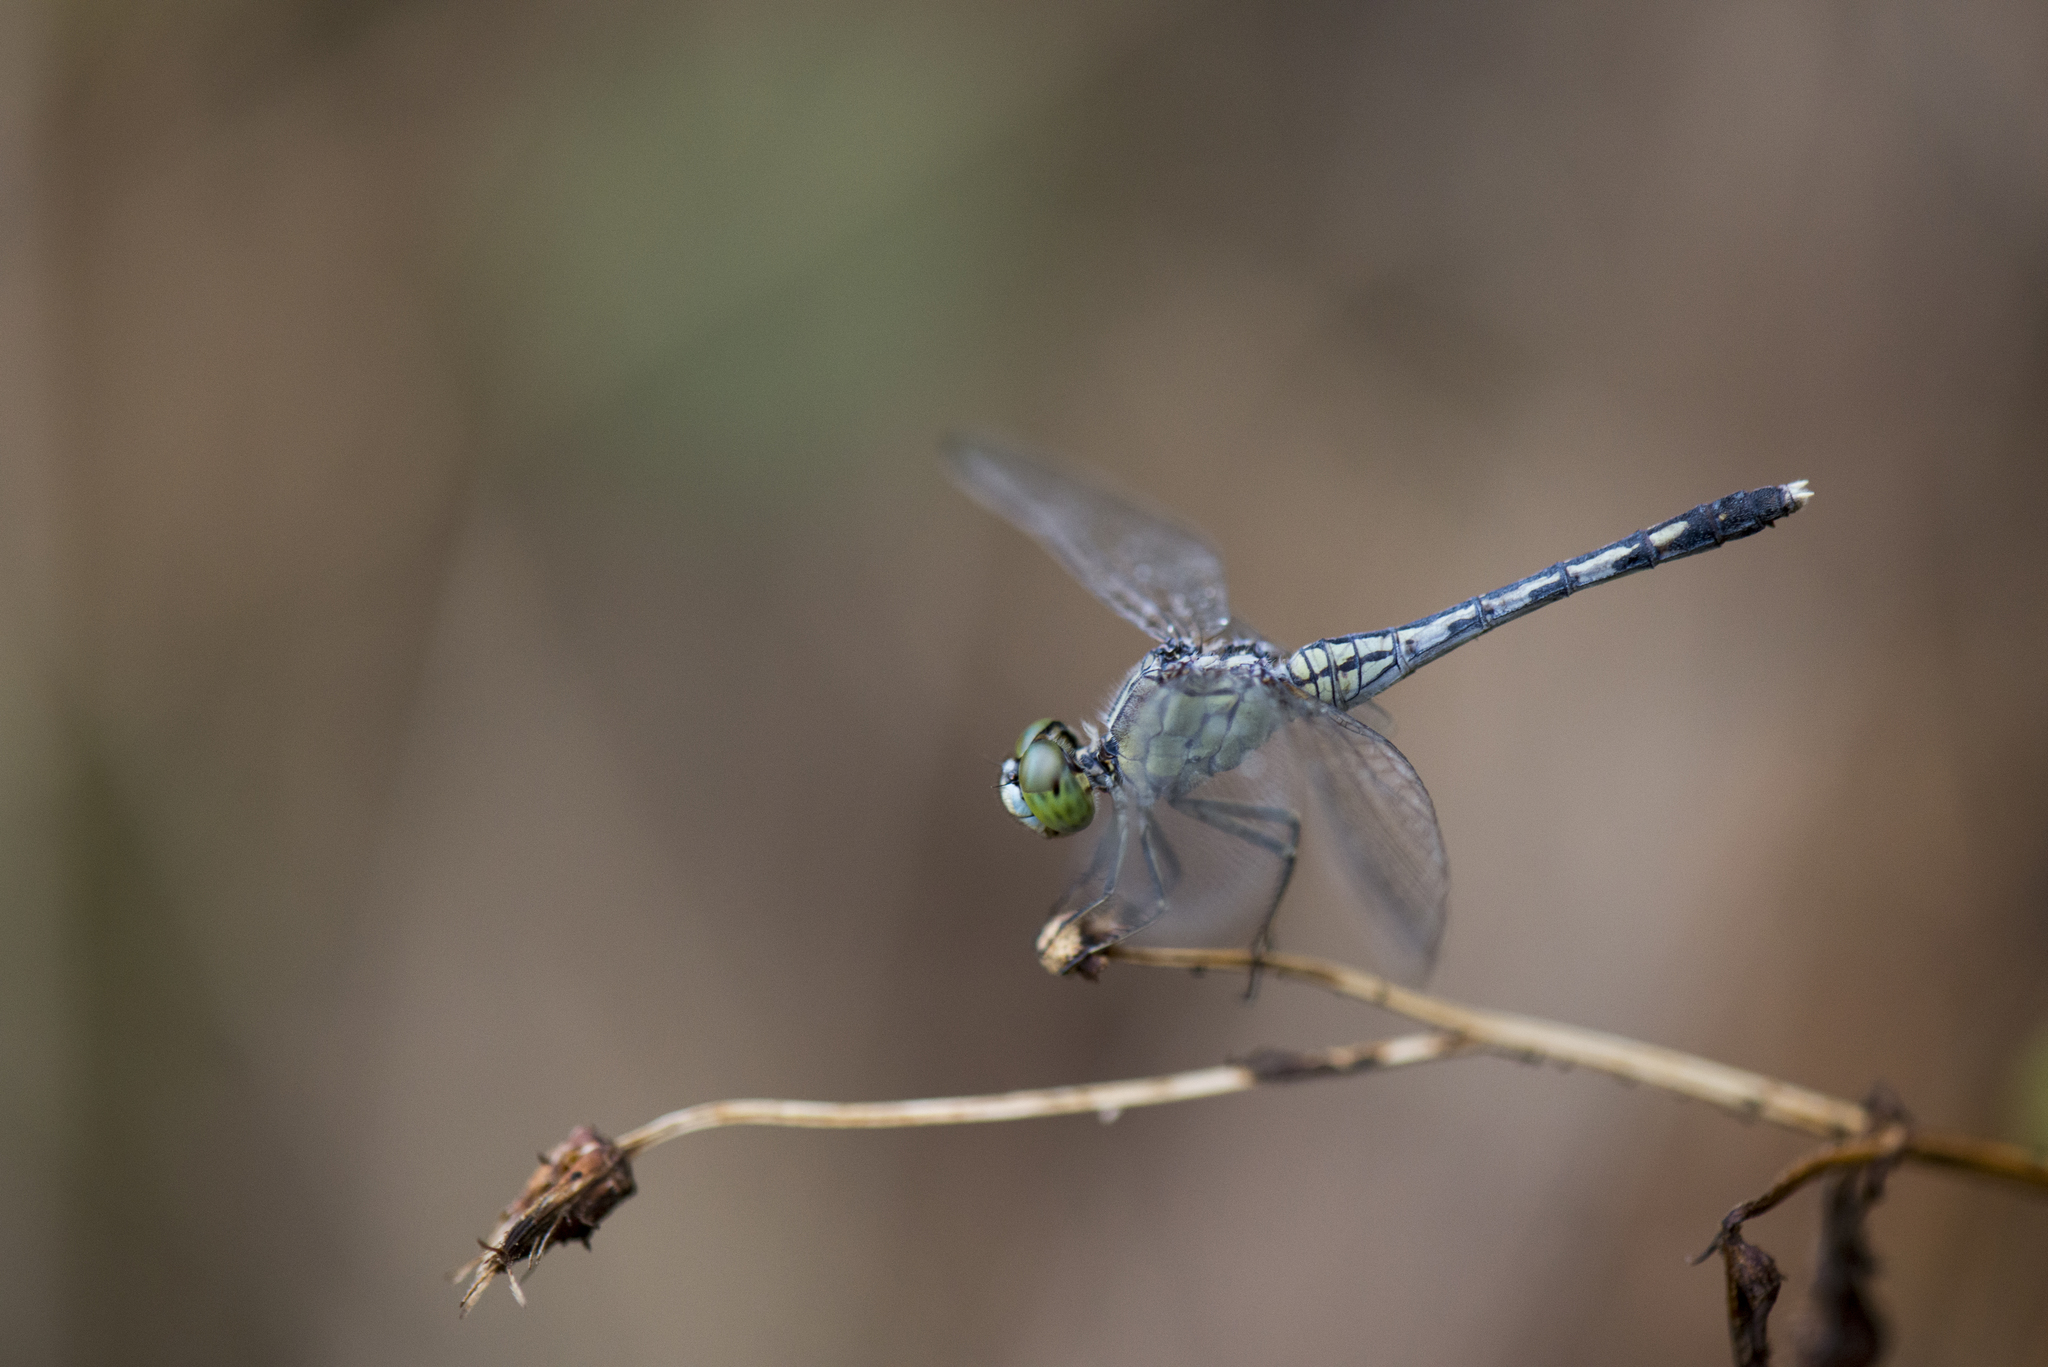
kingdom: Animalia
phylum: Arthropoda
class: Insecta
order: Odonata
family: Libellulidae
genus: Diplacodes
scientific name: Diplacodes trivialis
